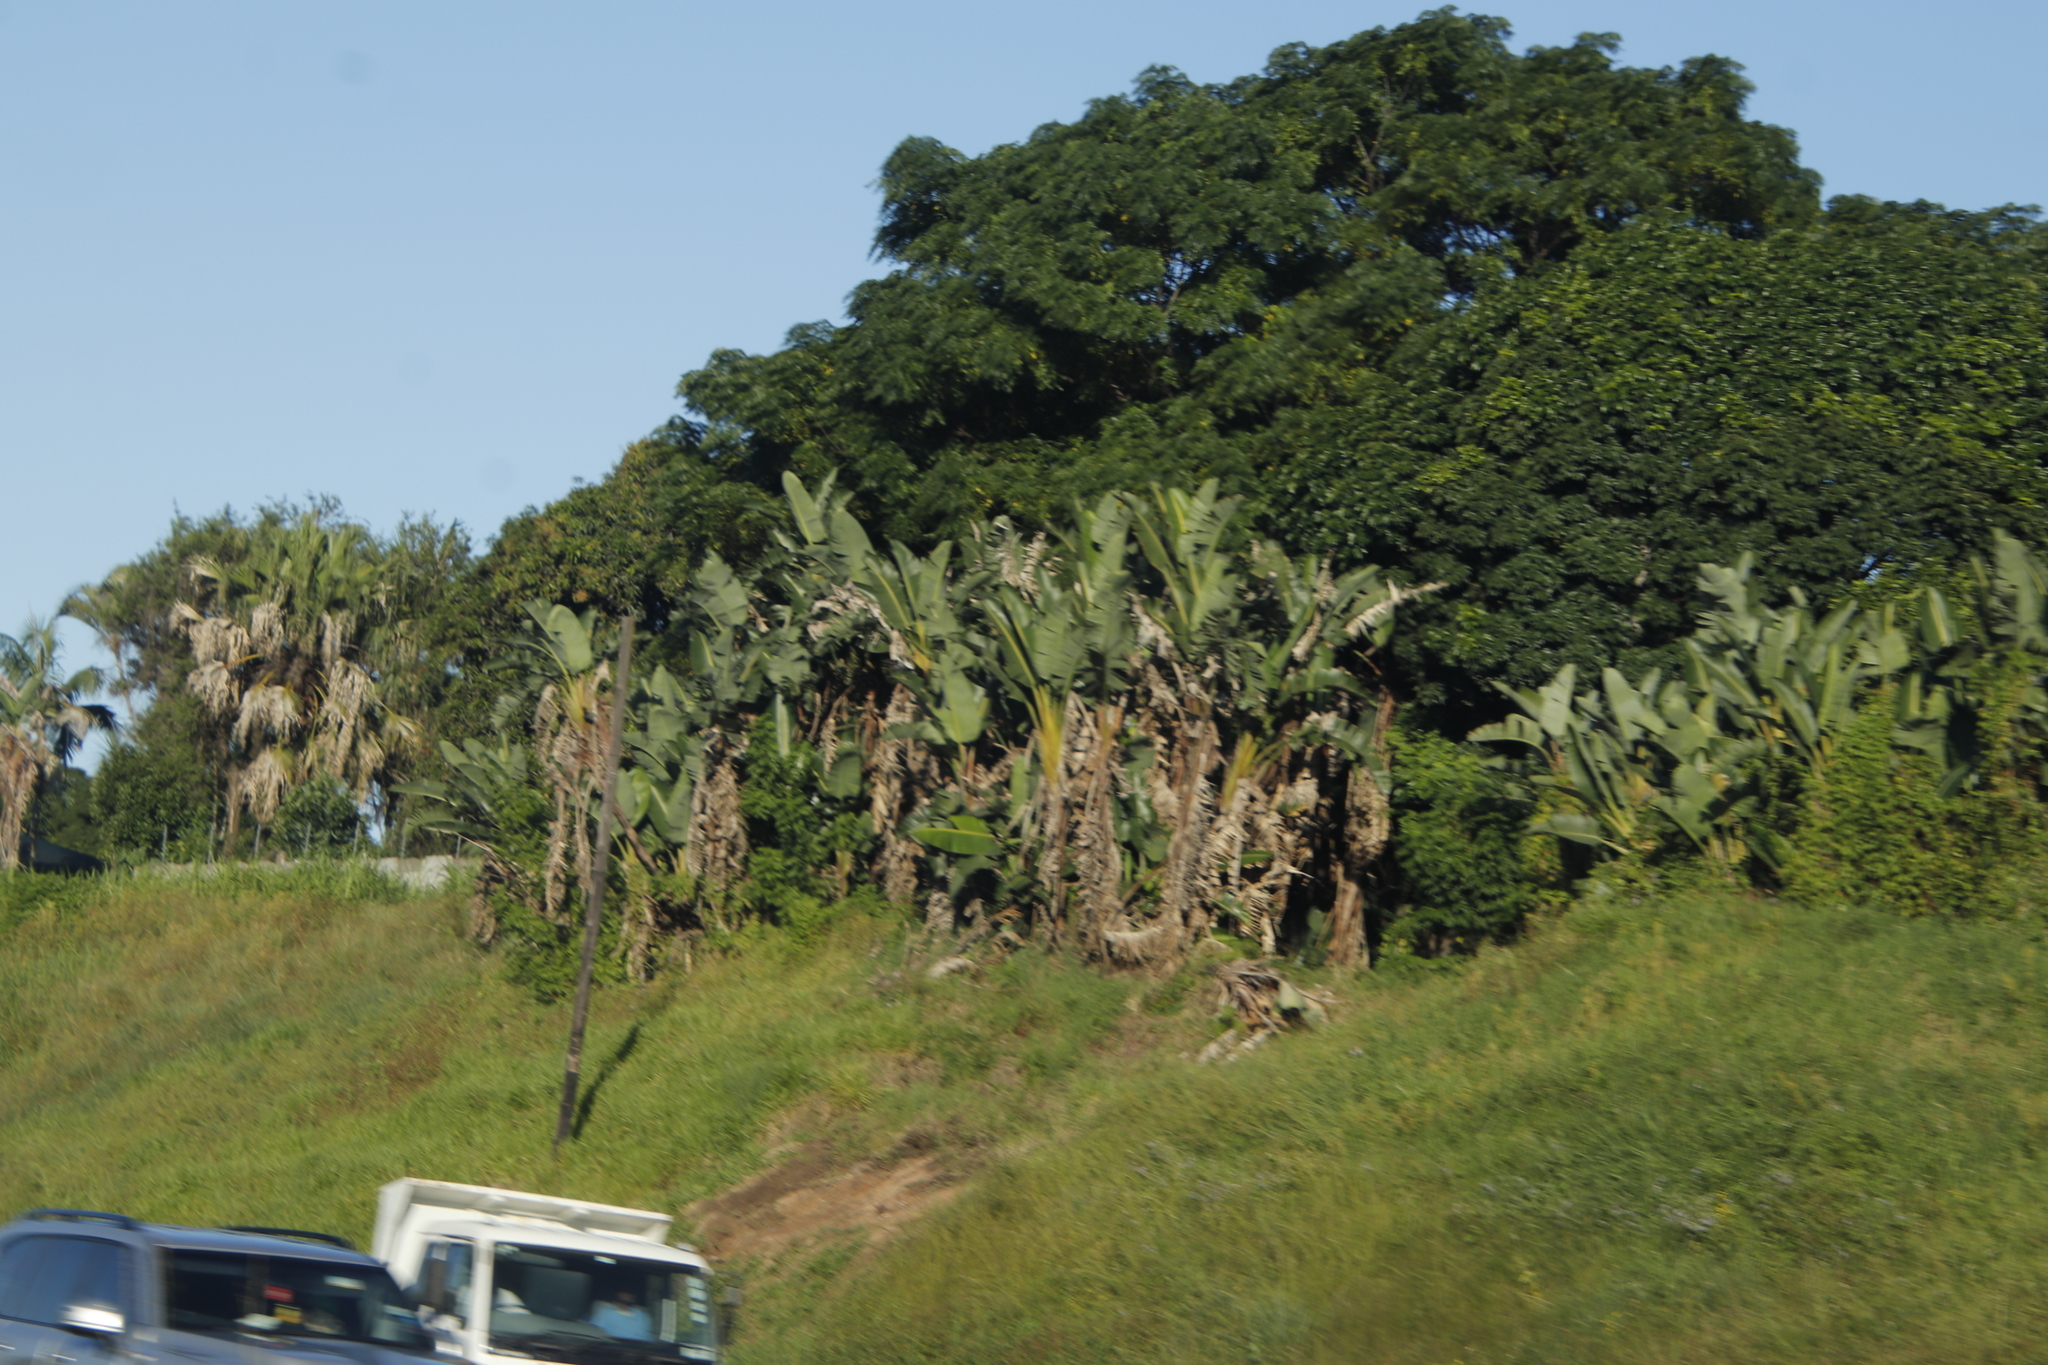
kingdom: Plantae
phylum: Tracheophyta
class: Liliopsida
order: Zingiberales
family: Strelitziaceae
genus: Strelitzia
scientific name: Strelitzia nicolai
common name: Bird-of-paradise tree
